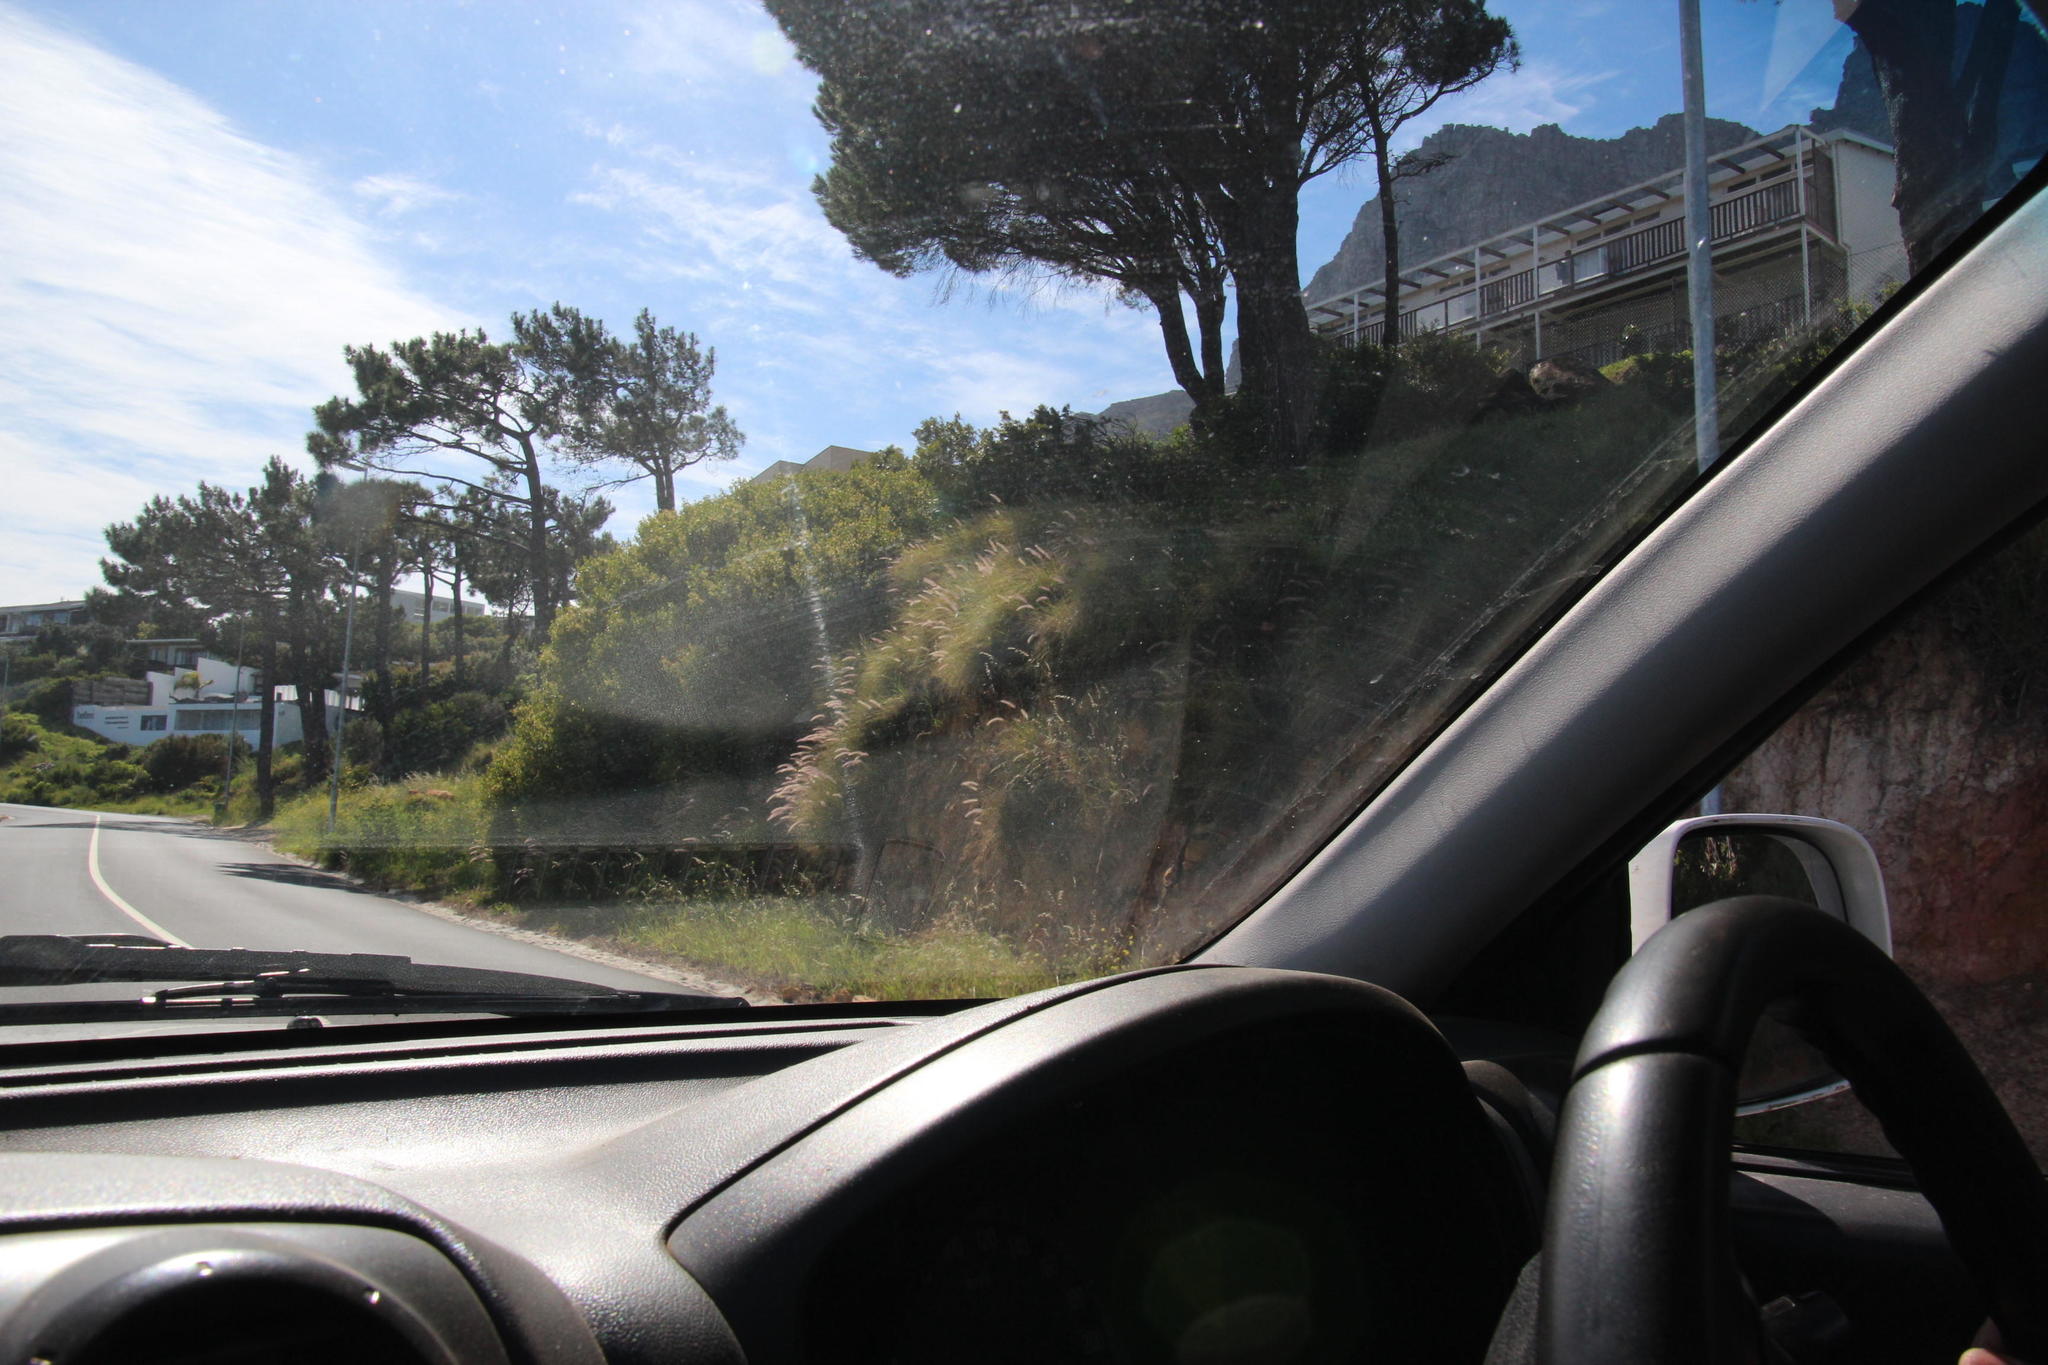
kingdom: Plantae
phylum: Tracheophyta
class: Liliopsida
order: Poales
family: Poaceae
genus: Cenchrus
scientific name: Cenchrus setaceus
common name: Crimson fountaingrass
